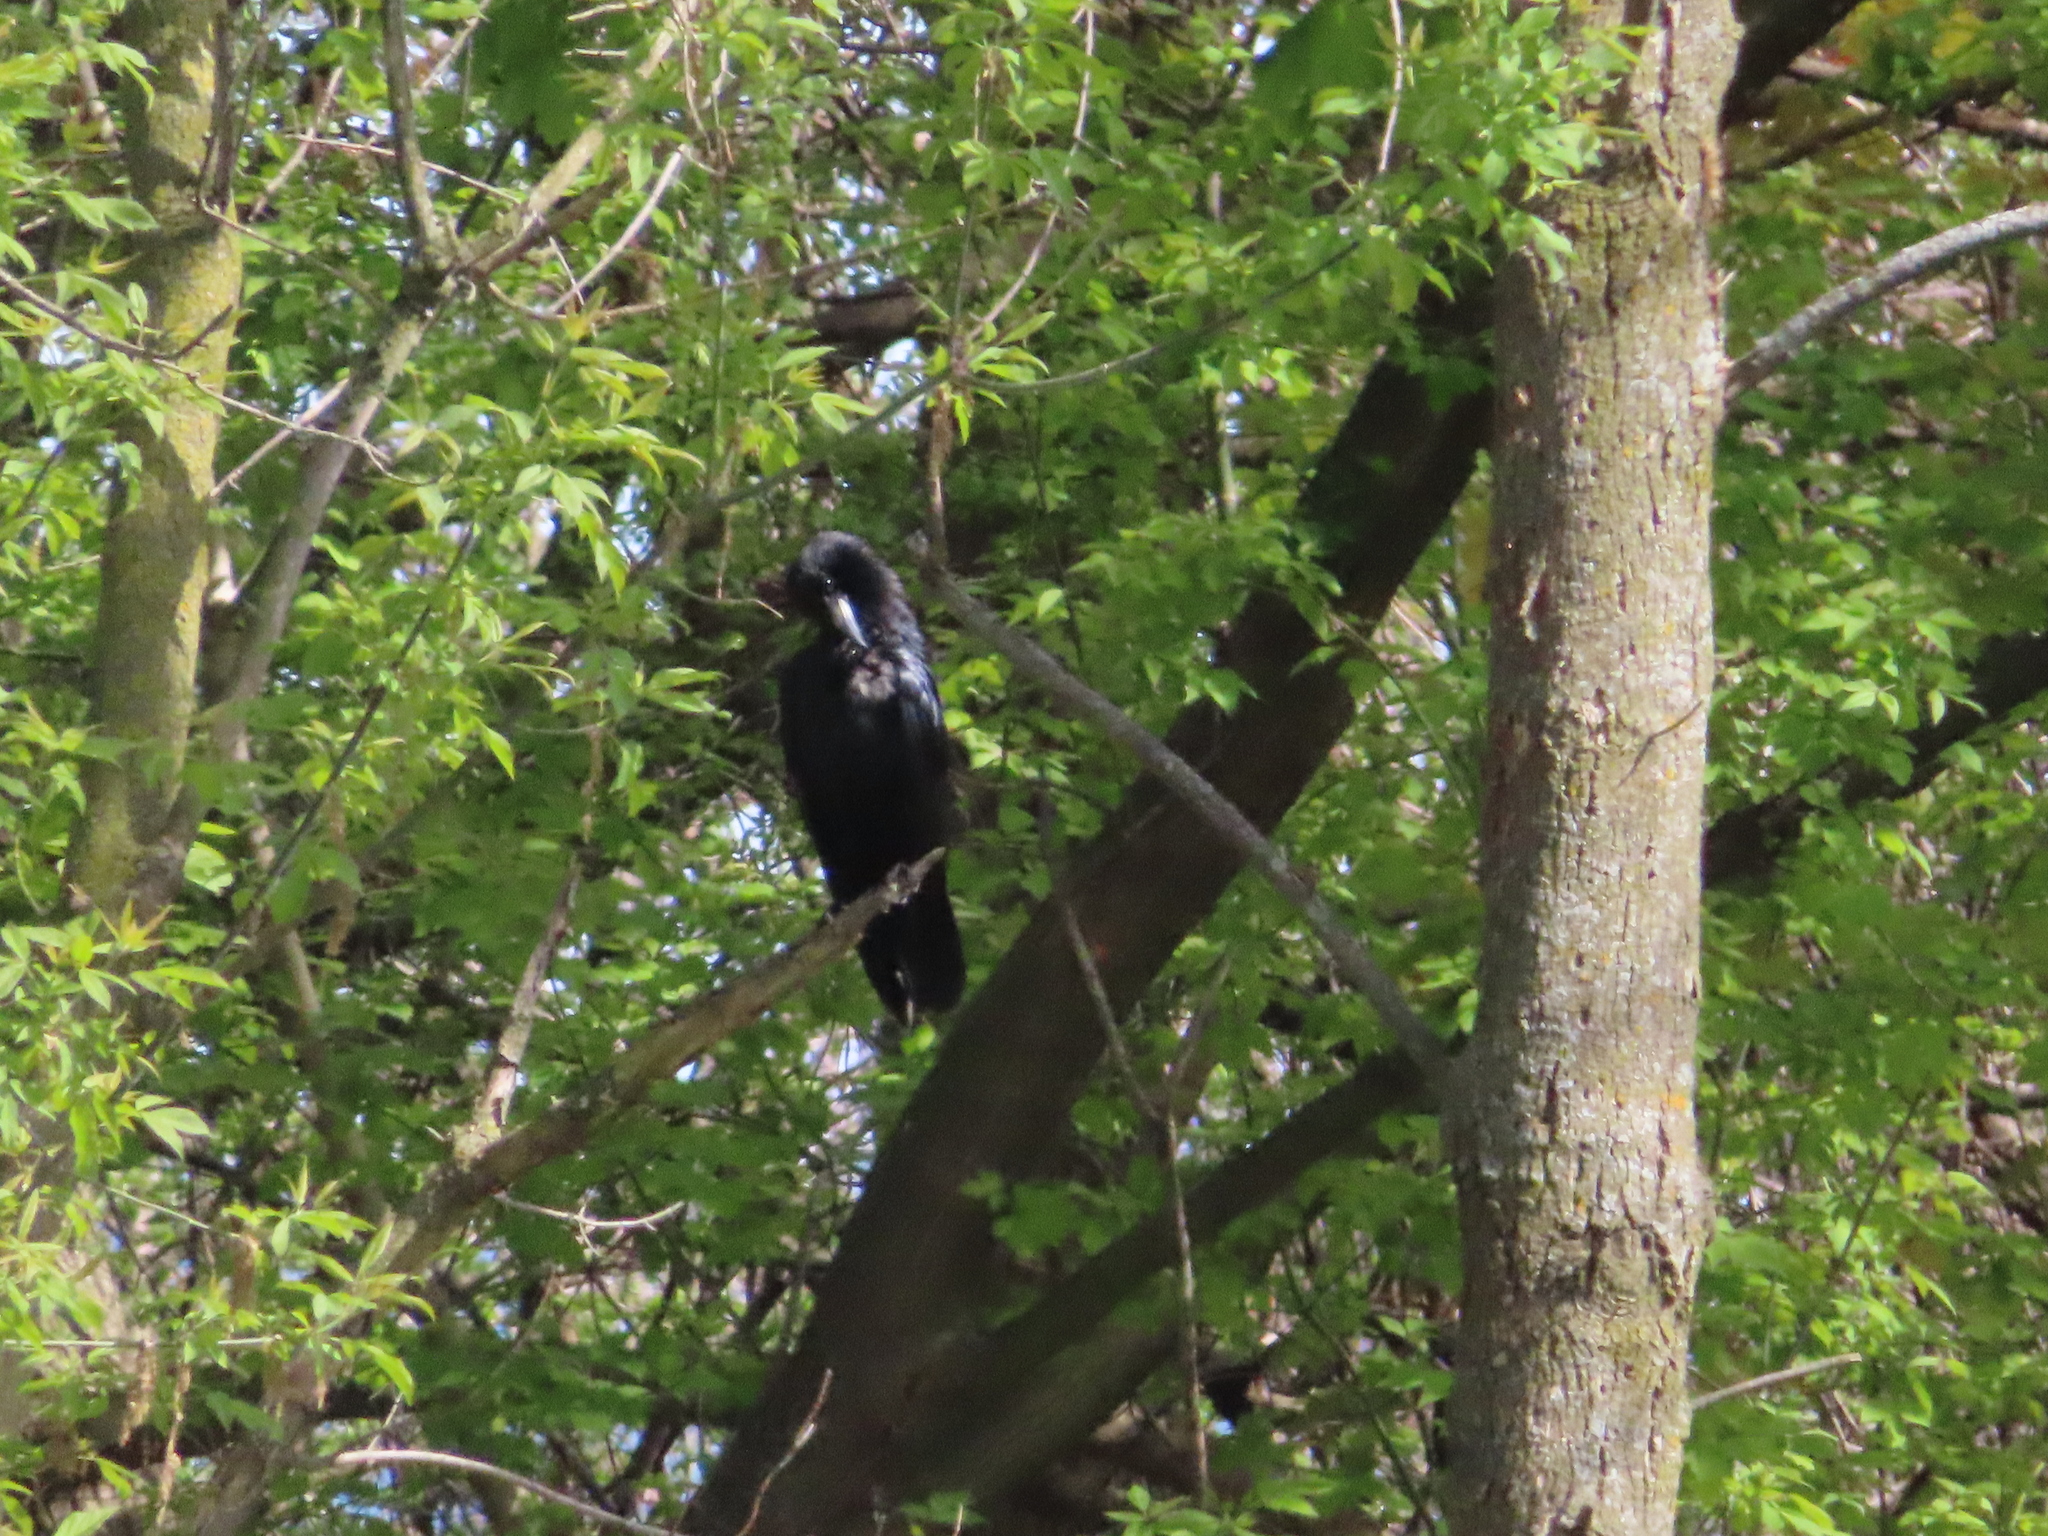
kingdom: Animalia
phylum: Chordata
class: Aves
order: Passeriformes
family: Corvidae
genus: Corvus
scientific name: Corvus brachyrhynchos
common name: American crow
